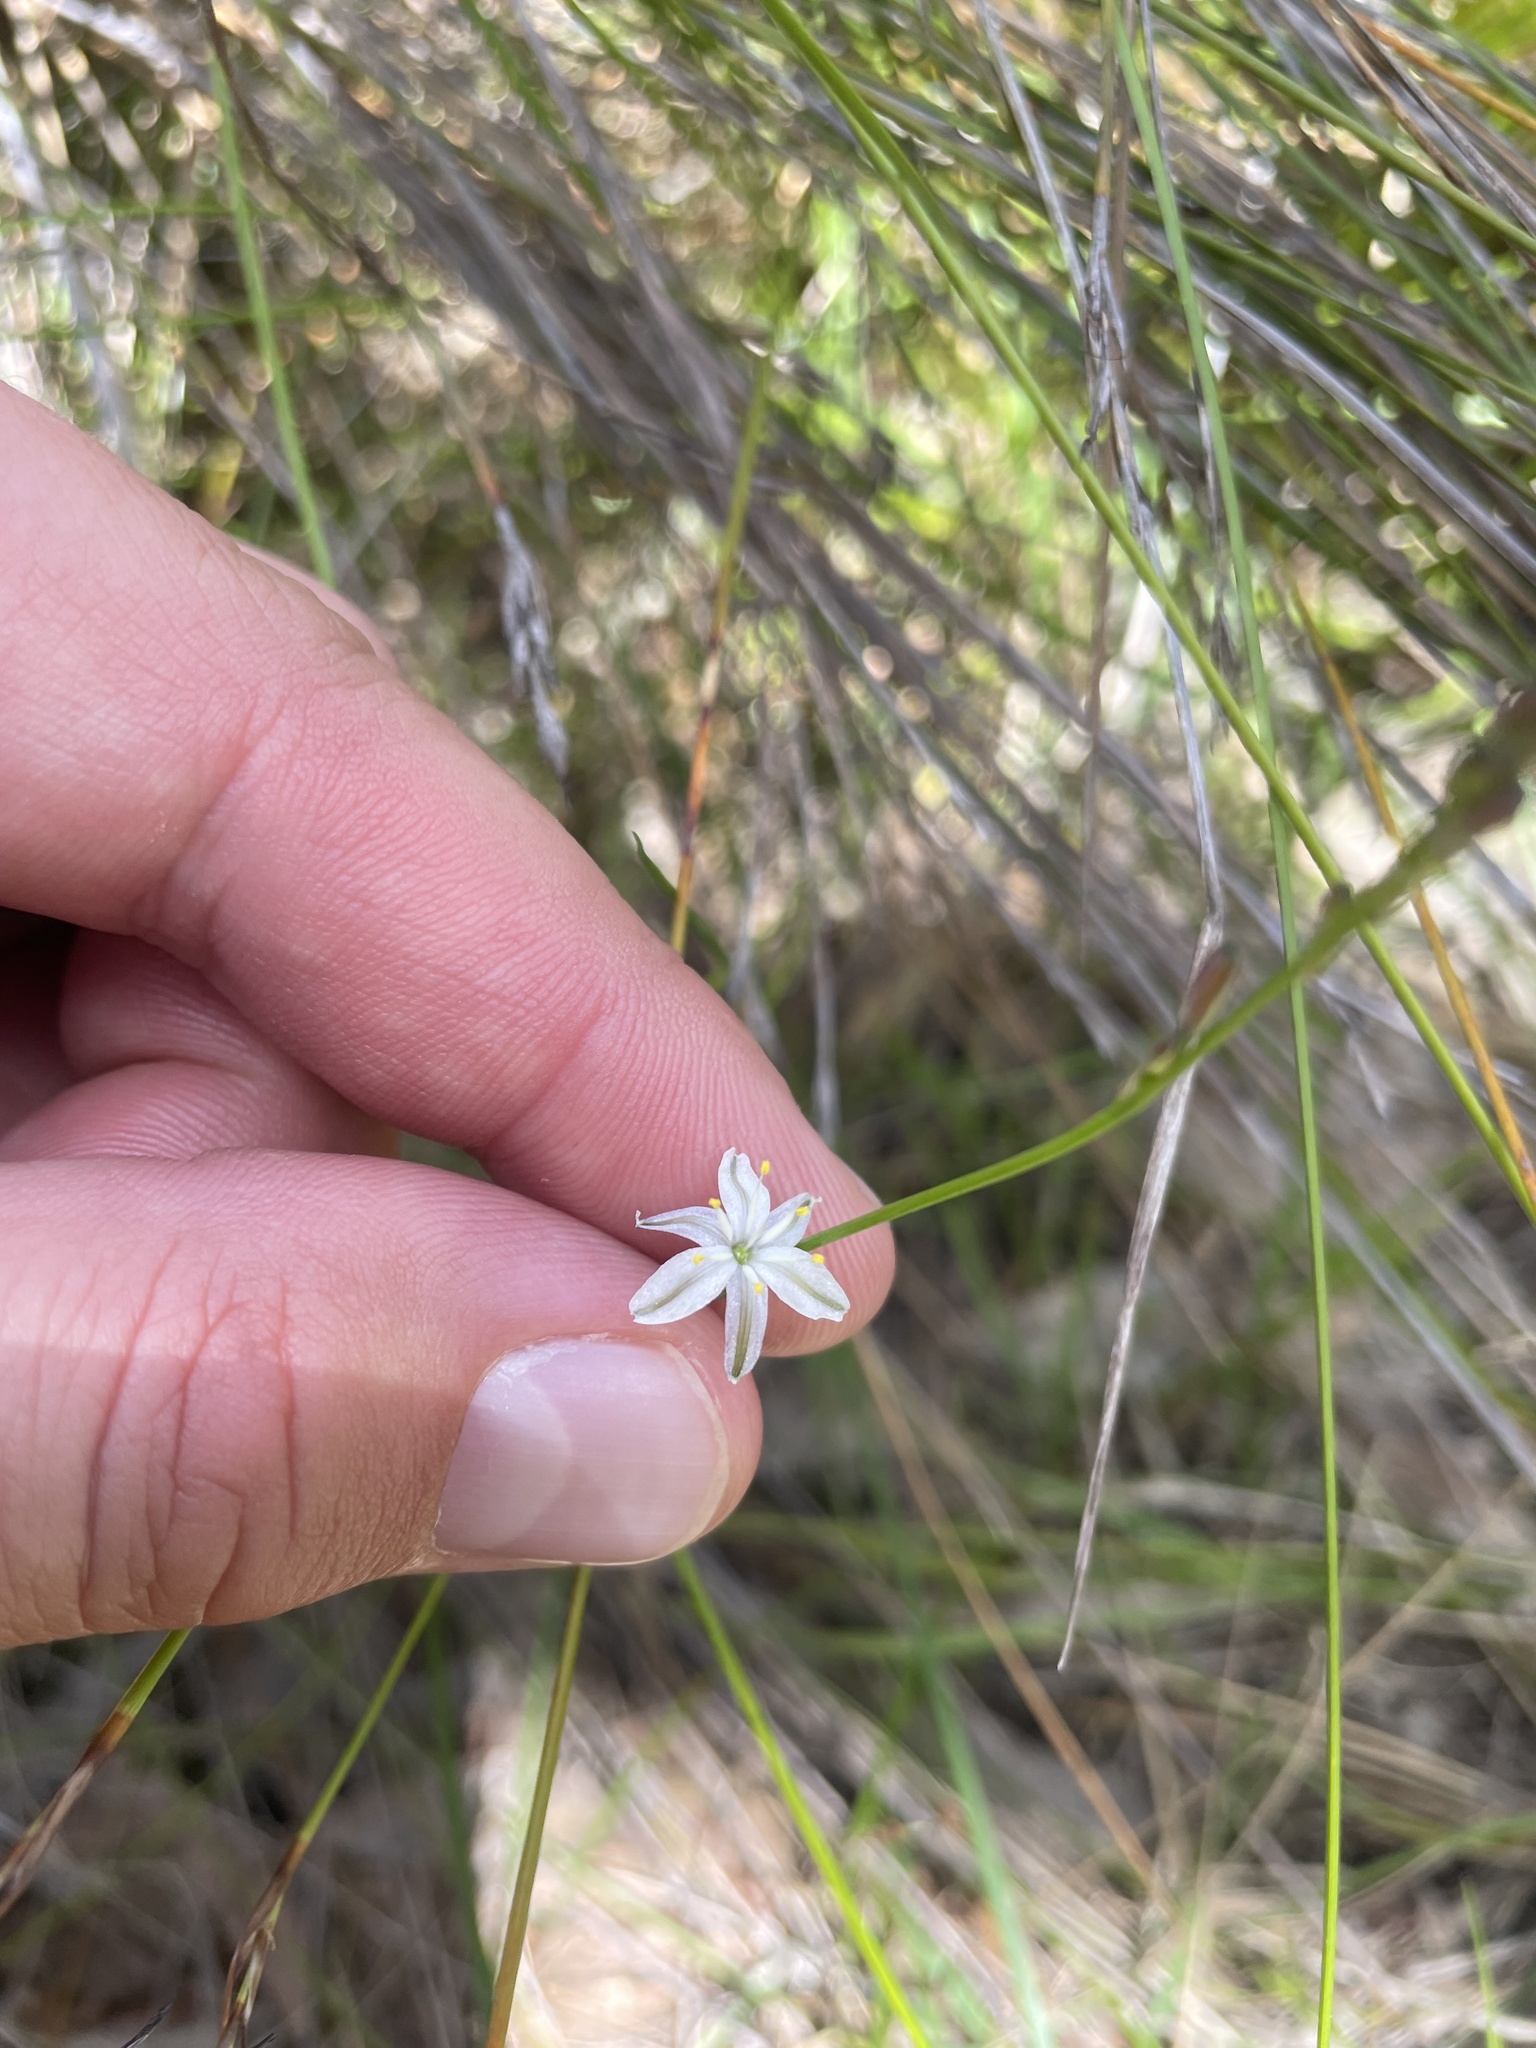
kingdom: Plantae
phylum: Tracheophyta
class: Liliopsida
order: Asparagales
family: Asphodelaceae
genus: Caesia
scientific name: Caesia parviflora
